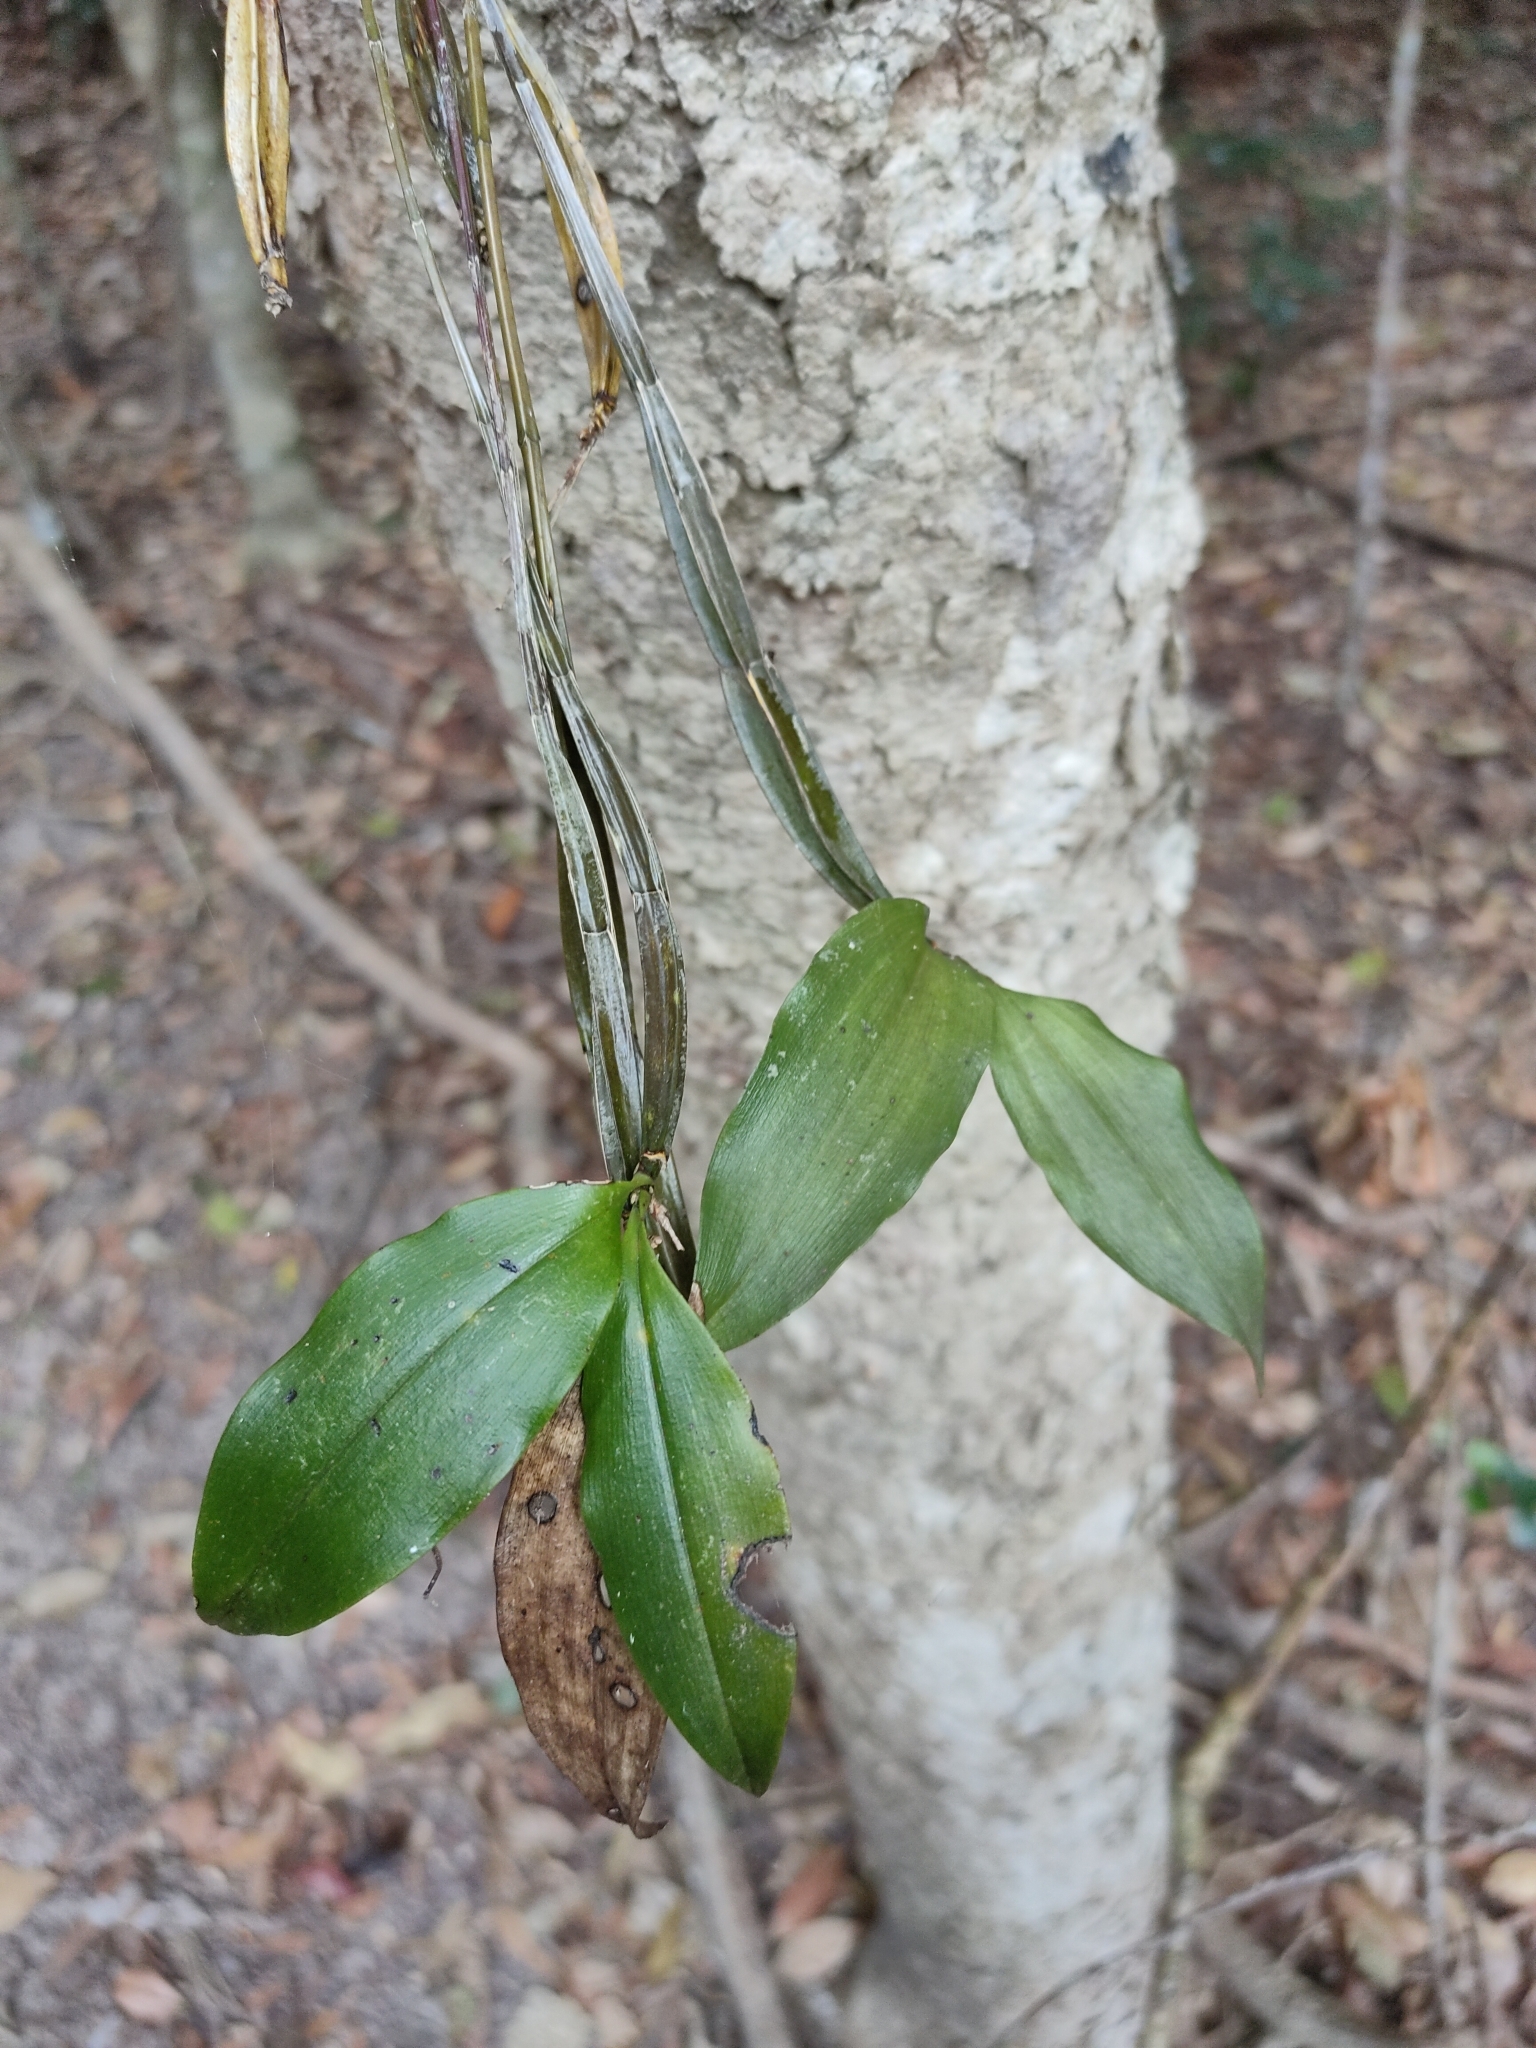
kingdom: Plantae
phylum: Tracheophyta
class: Liliopsida
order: Asparagales
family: Orchidaceae
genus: Dendrobium
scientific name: Dendrobium tetragonum
